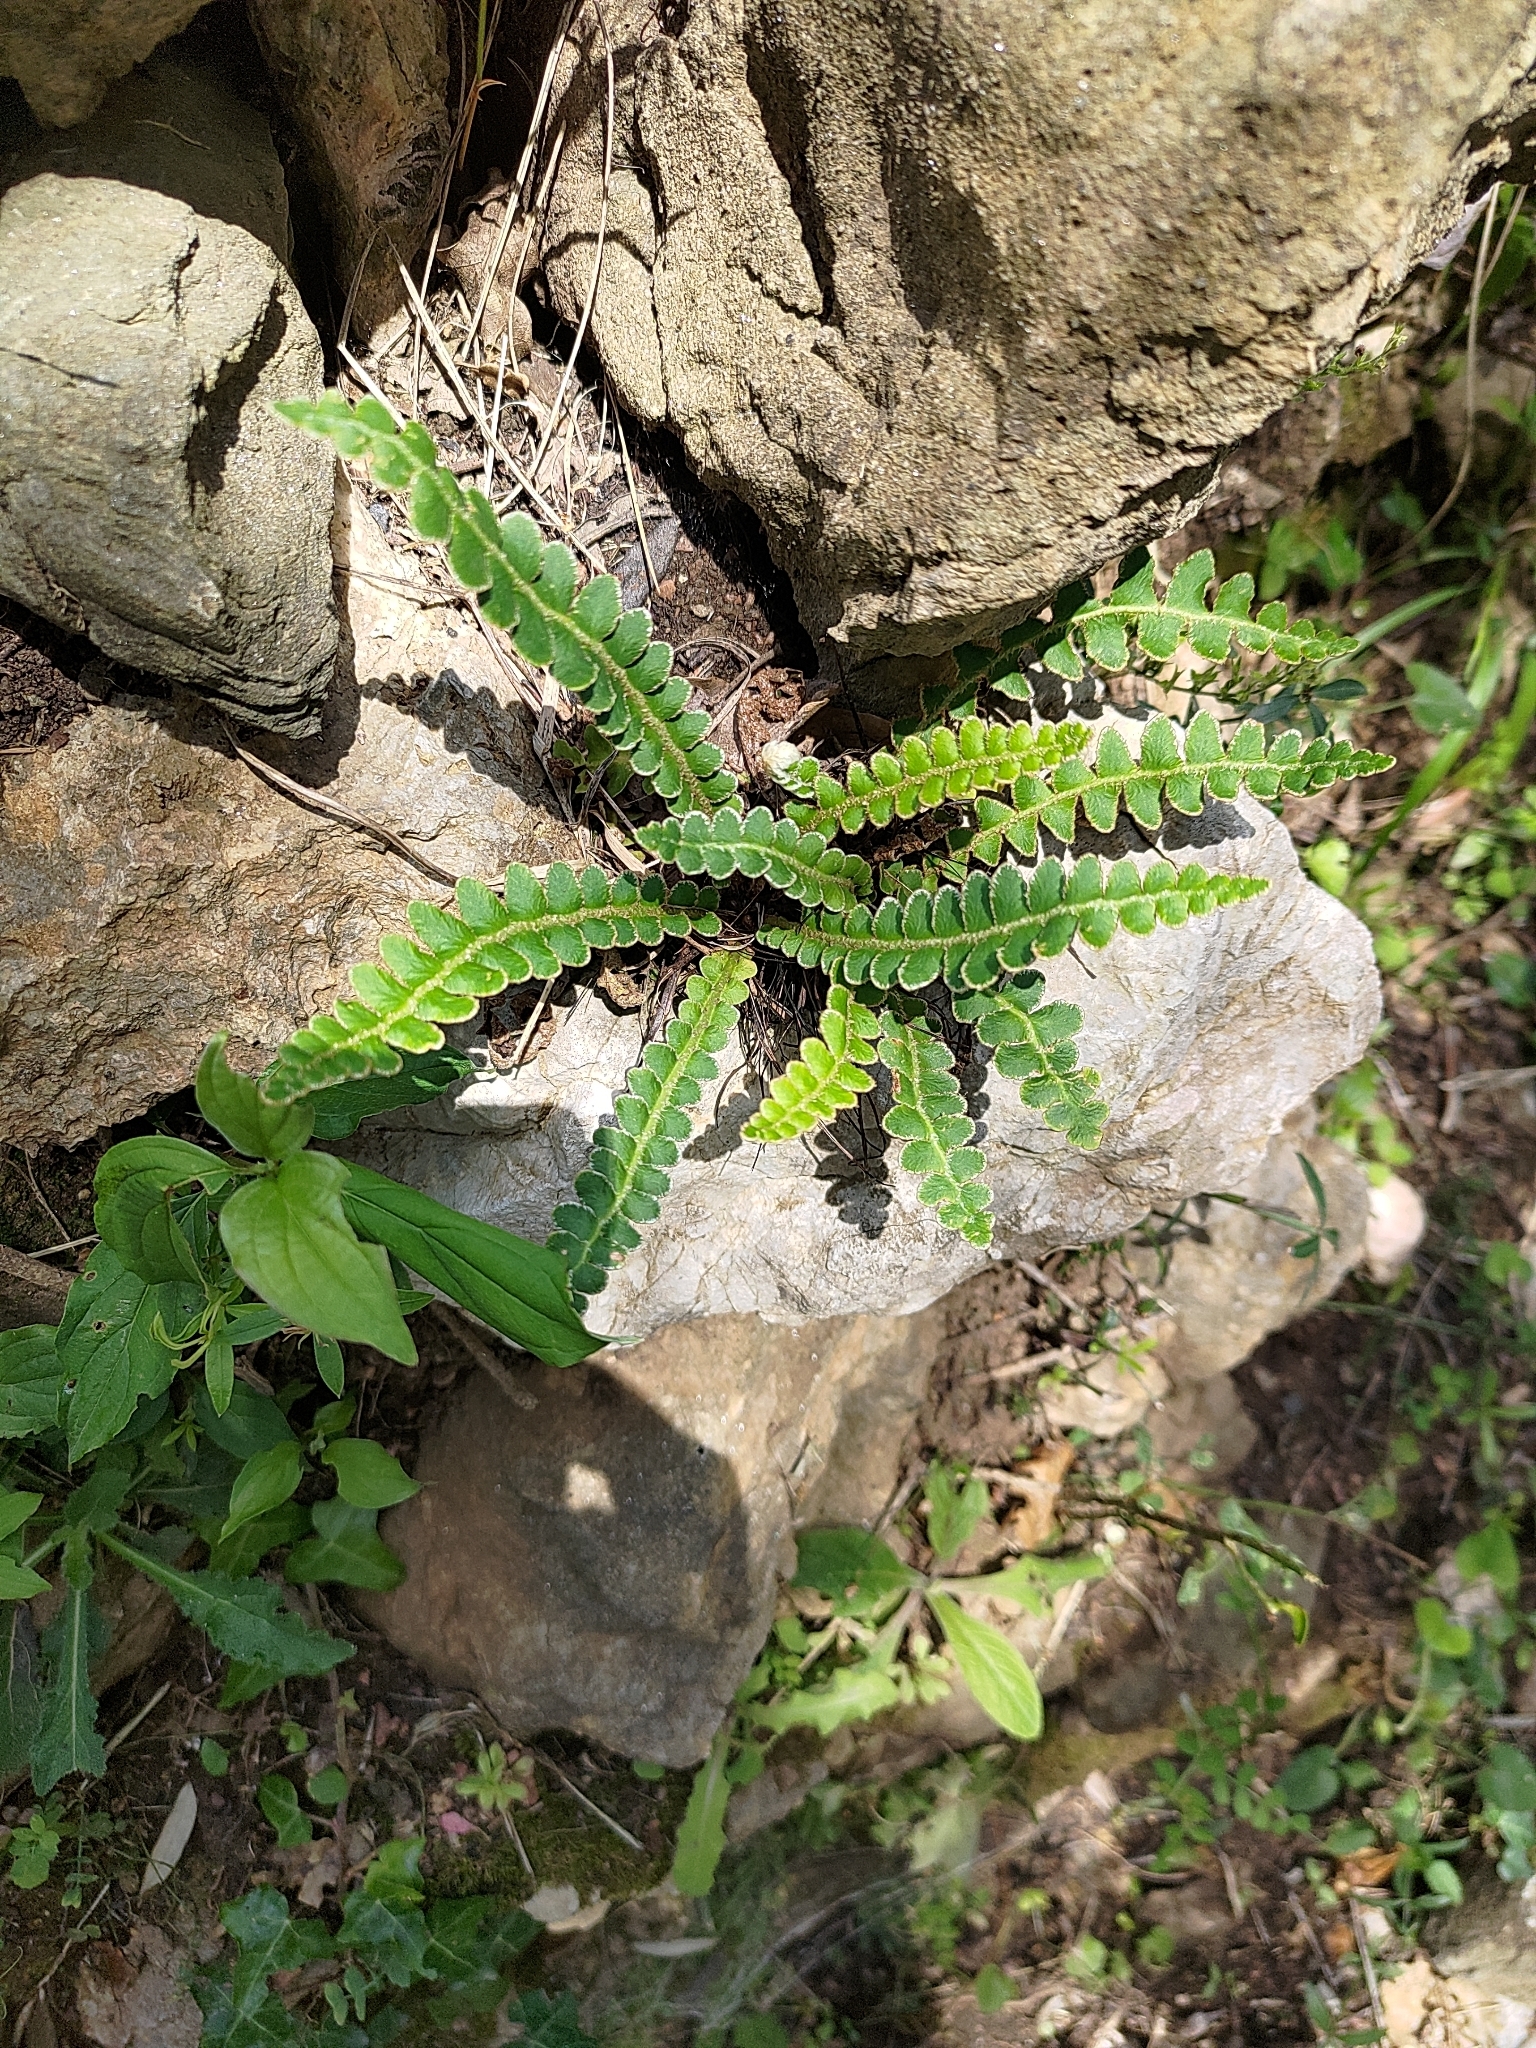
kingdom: Plantae
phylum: Tracheophyta
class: Polypodiopsida
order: Polypodiales
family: Aspleniaceae
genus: Asplenium
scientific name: Asplenium ceterach
